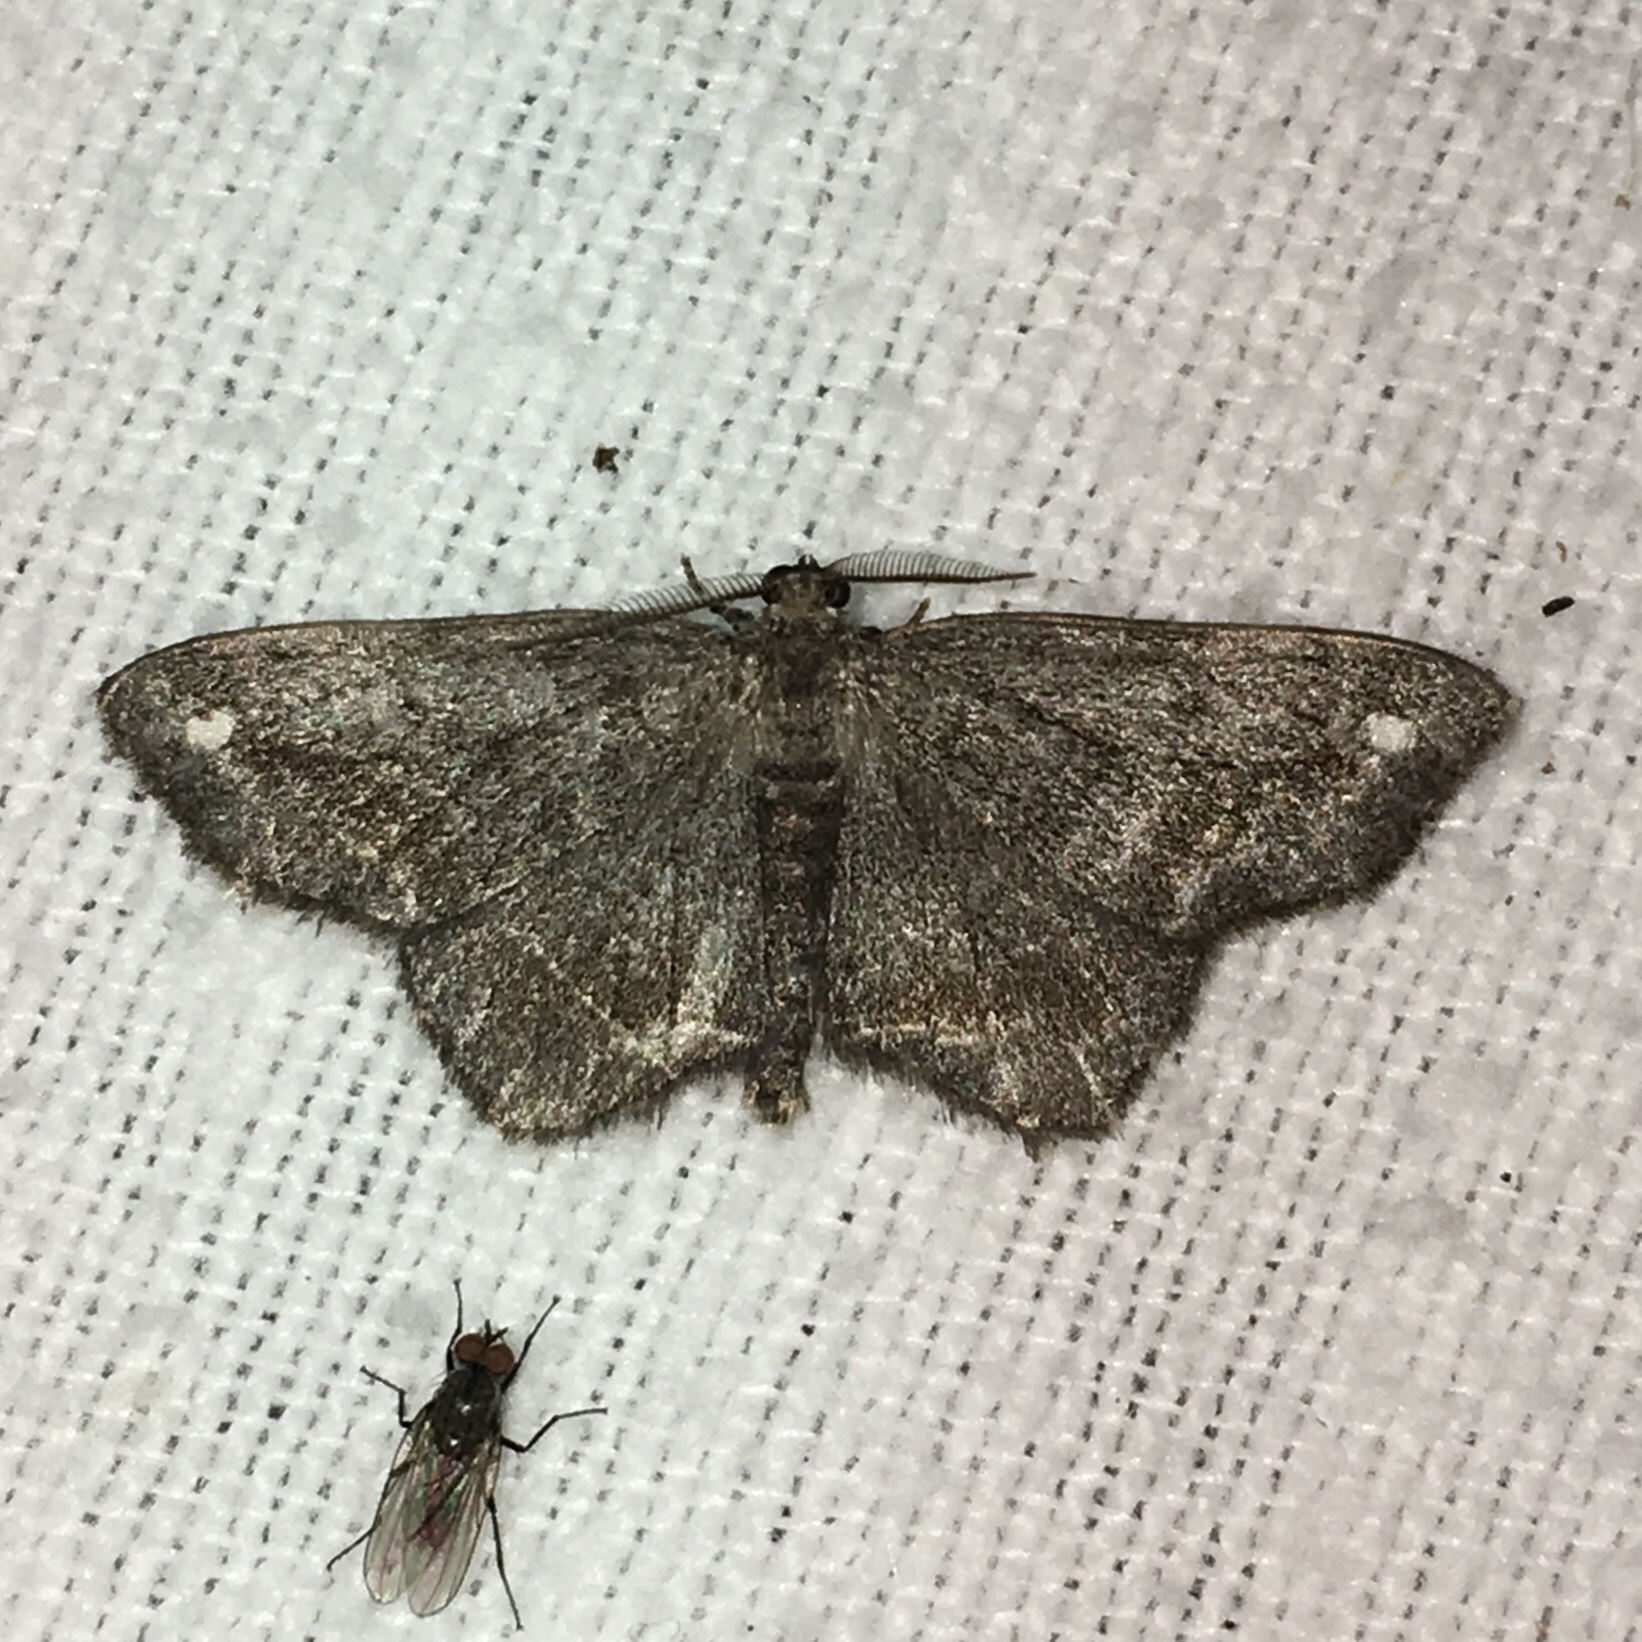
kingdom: Animalia
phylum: Arthropoda
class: Insecta
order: Lepidoptera
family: Geometridae
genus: Hypagyrtis
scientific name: Hypagyrtis unipunctata
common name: One-spotted variant
